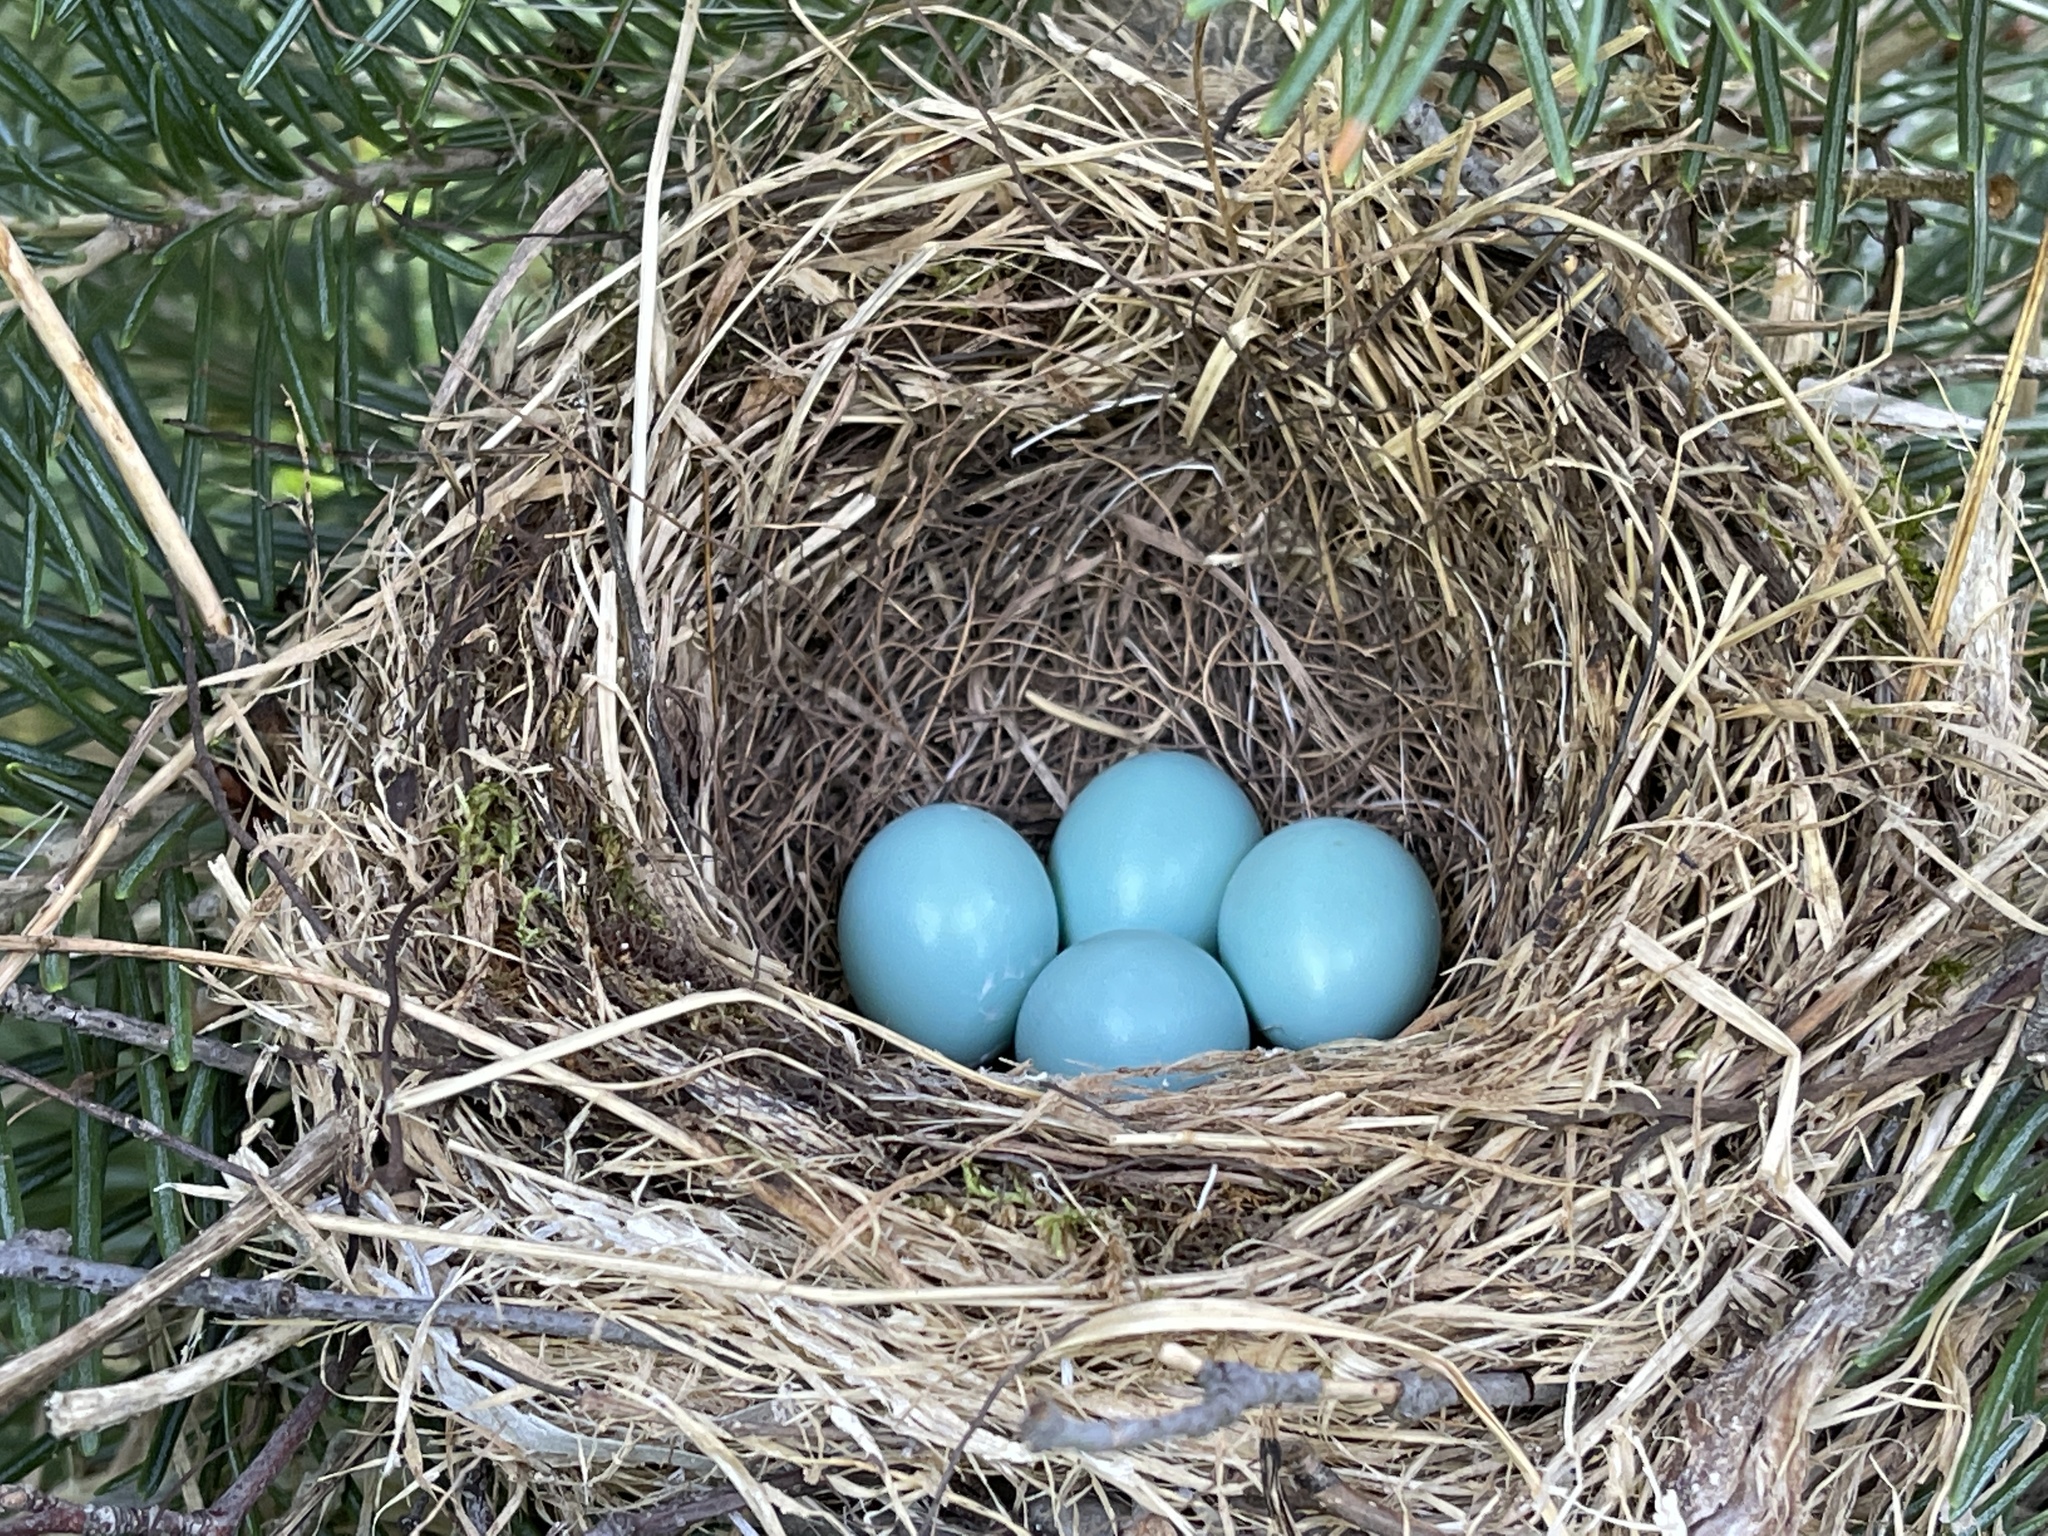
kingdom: Animalia
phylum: Chordata
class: Aves
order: Passeriformes
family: Turdidae
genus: Turdus
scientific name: Turdus migratorius
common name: American robin
